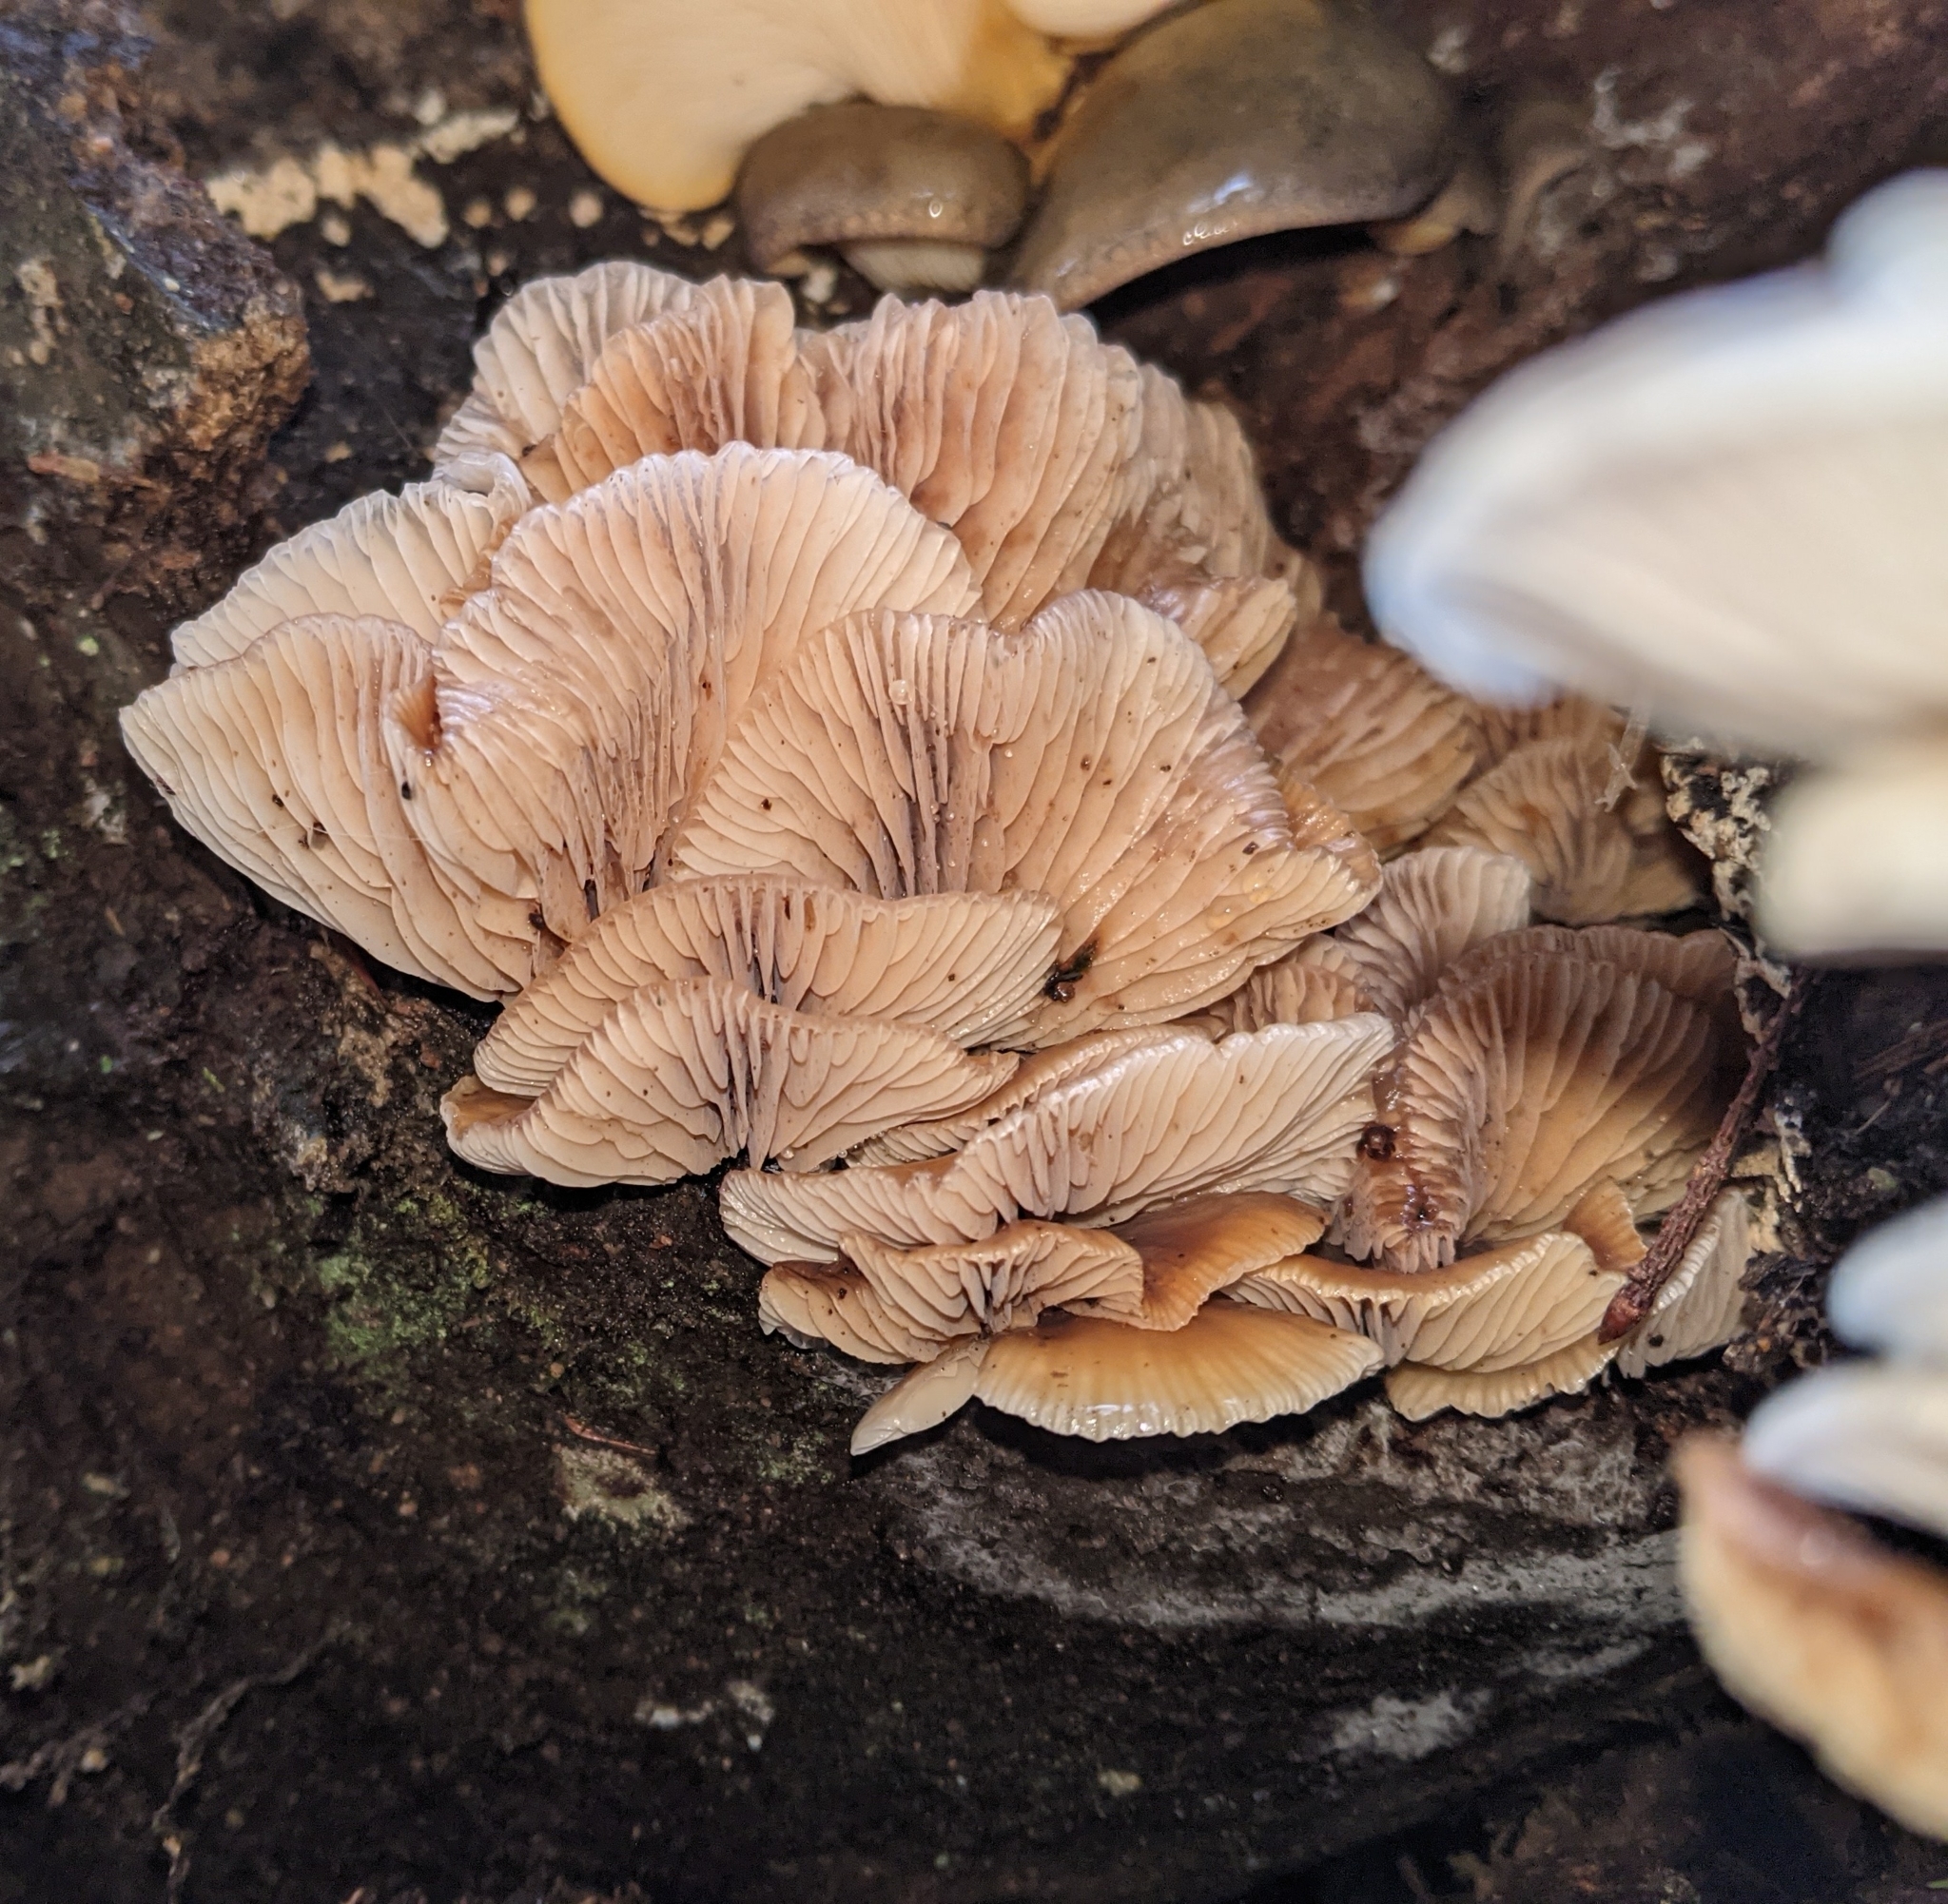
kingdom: Fungi
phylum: Basidiomycota
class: Agaricomycetes
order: Agaricales
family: Mycenaceae
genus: Panellus
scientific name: Panellus longinquus
